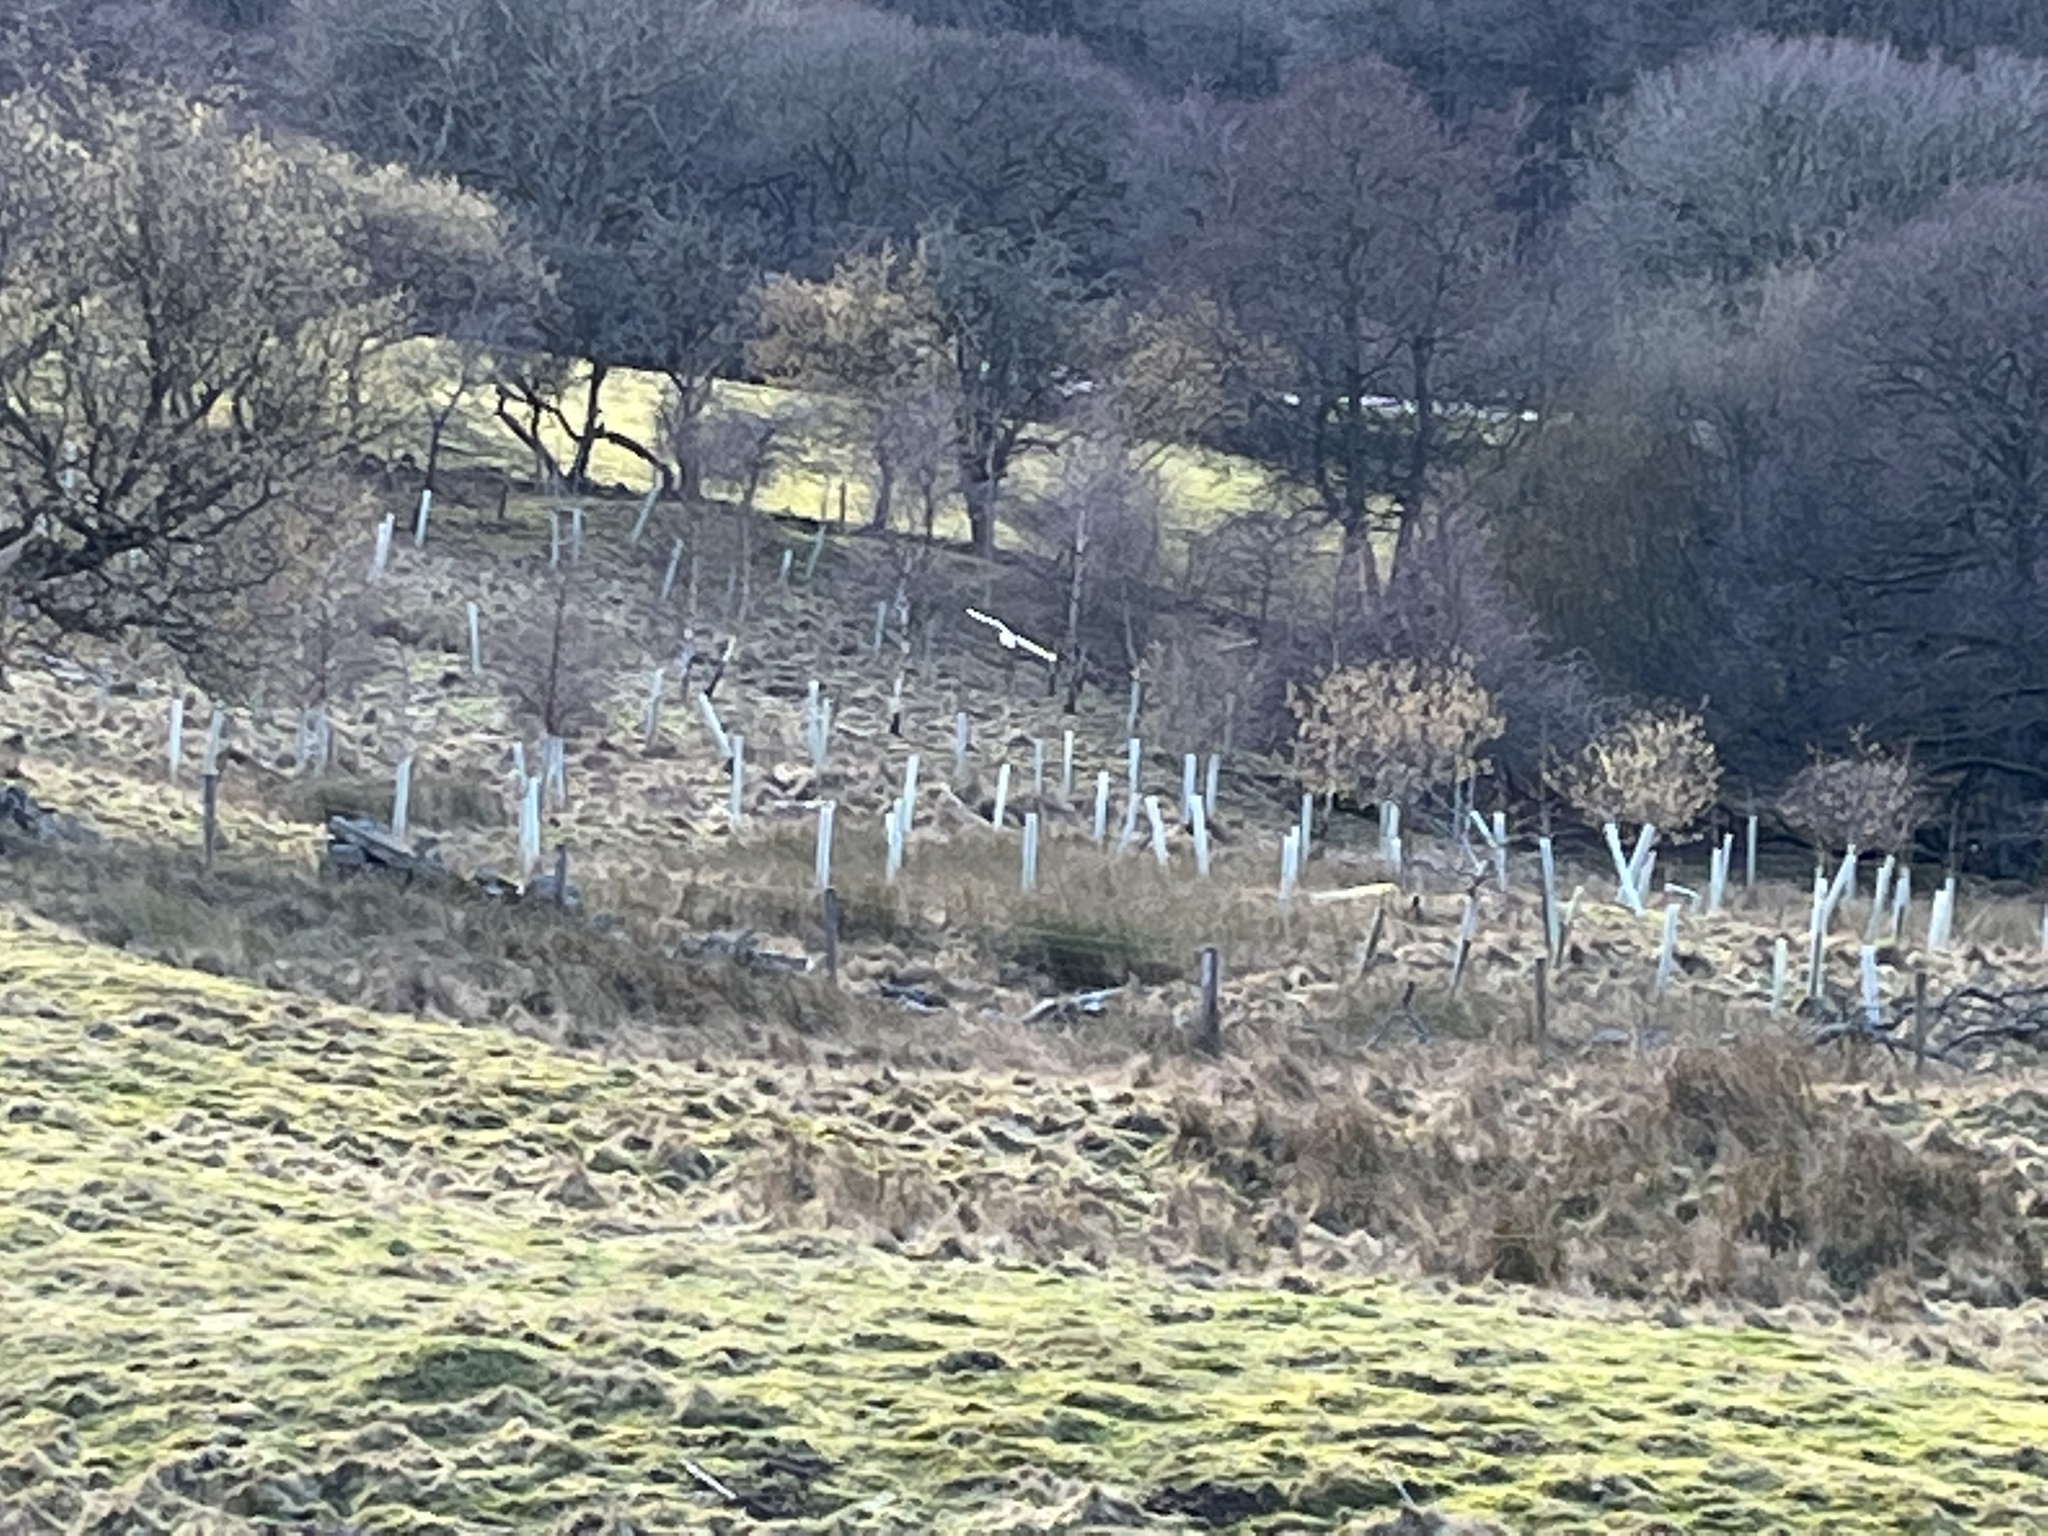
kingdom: Animalia
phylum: Chordata
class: Aves
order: Strigiformes
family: Tytonidae
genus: Tyto
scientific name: Tyto alba
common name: Barn owl
